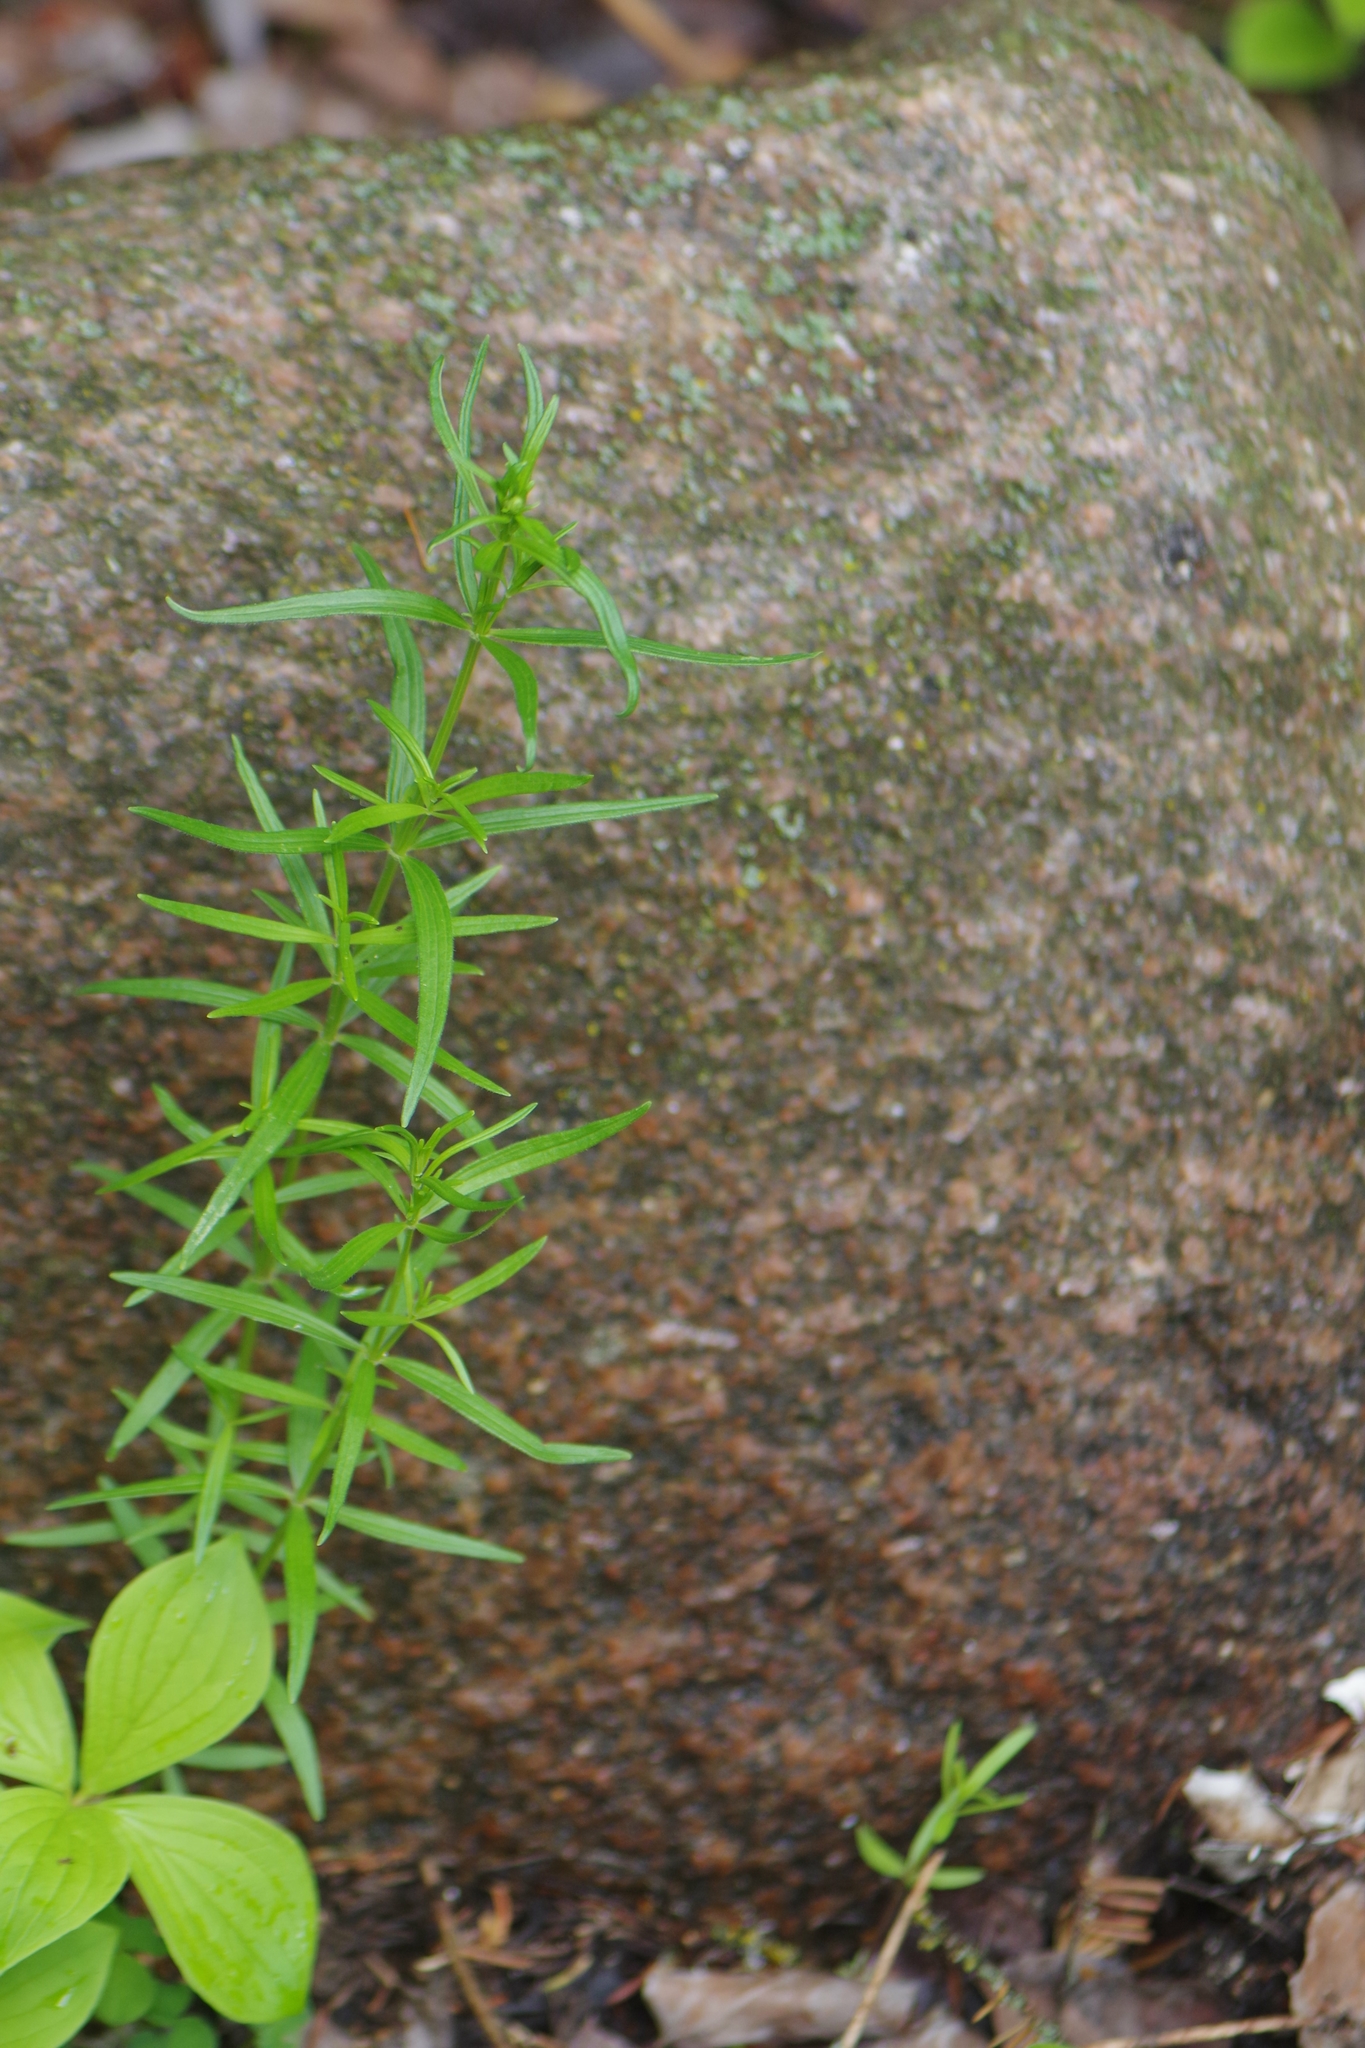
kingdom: Plantae
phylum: Tracheophyta
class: Magnoliopsida
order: Gentianales
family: Rubiaceae
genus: Galium
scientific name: Galium boreale
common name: Northern bedstraw
